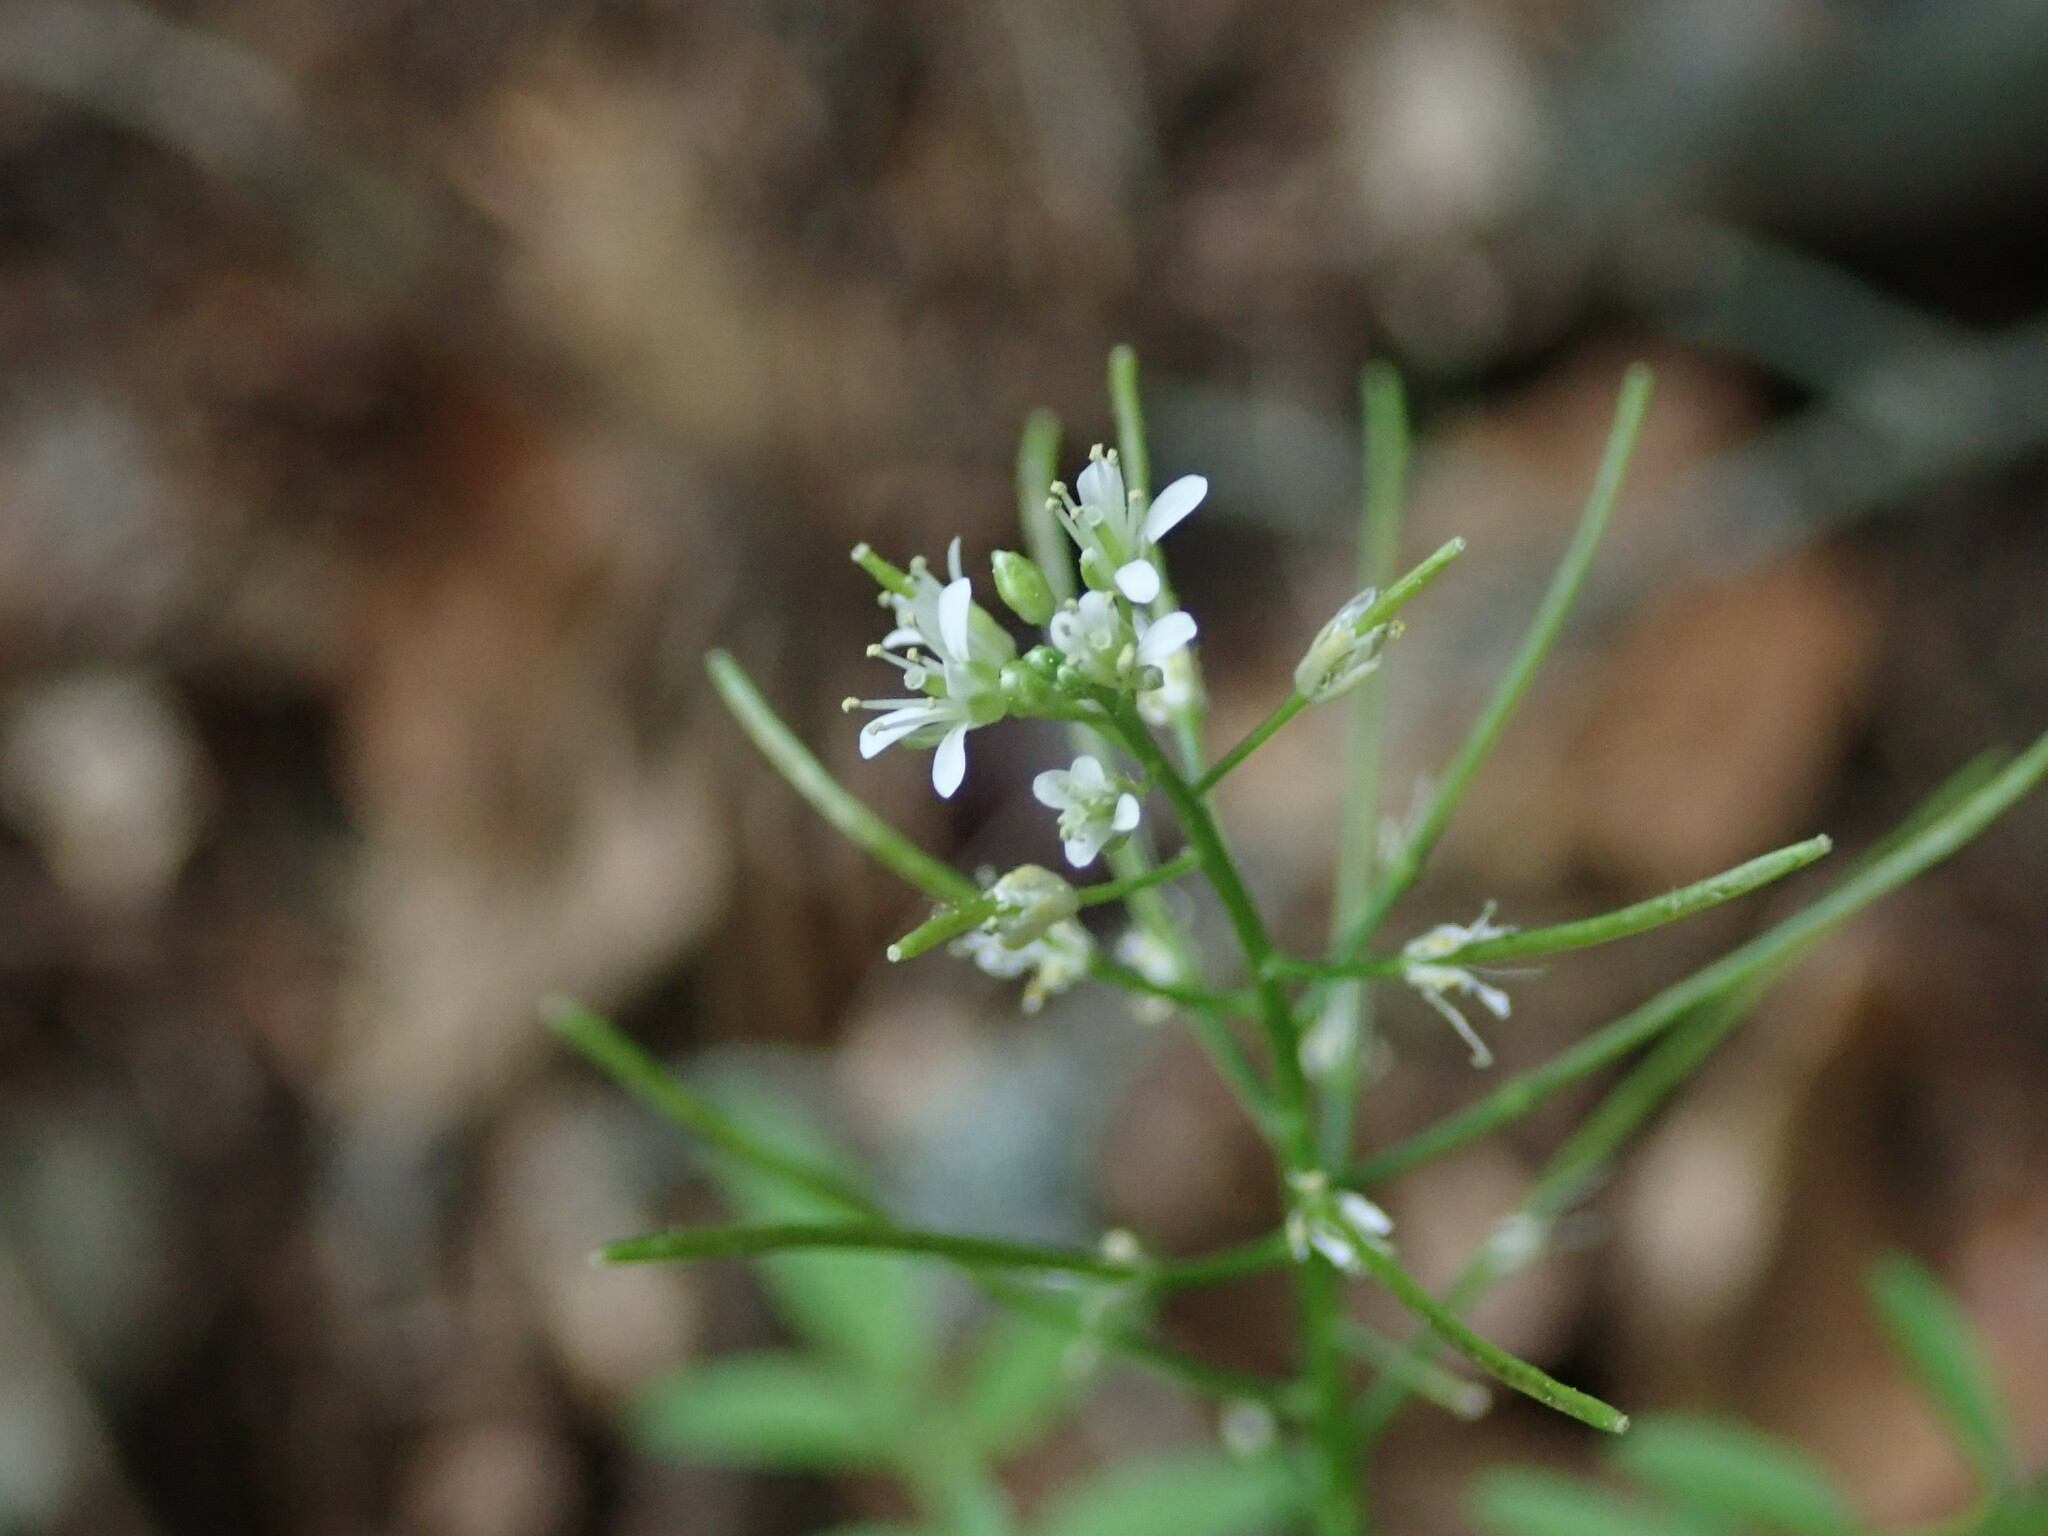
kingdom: Plantae
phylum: Tracheophyta
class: Magnoliopsida
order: Brassicales
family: Brassicaceae
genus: Cardamine
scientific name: Cardamine impatiens
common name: Narrow-leaved bitter-cress
